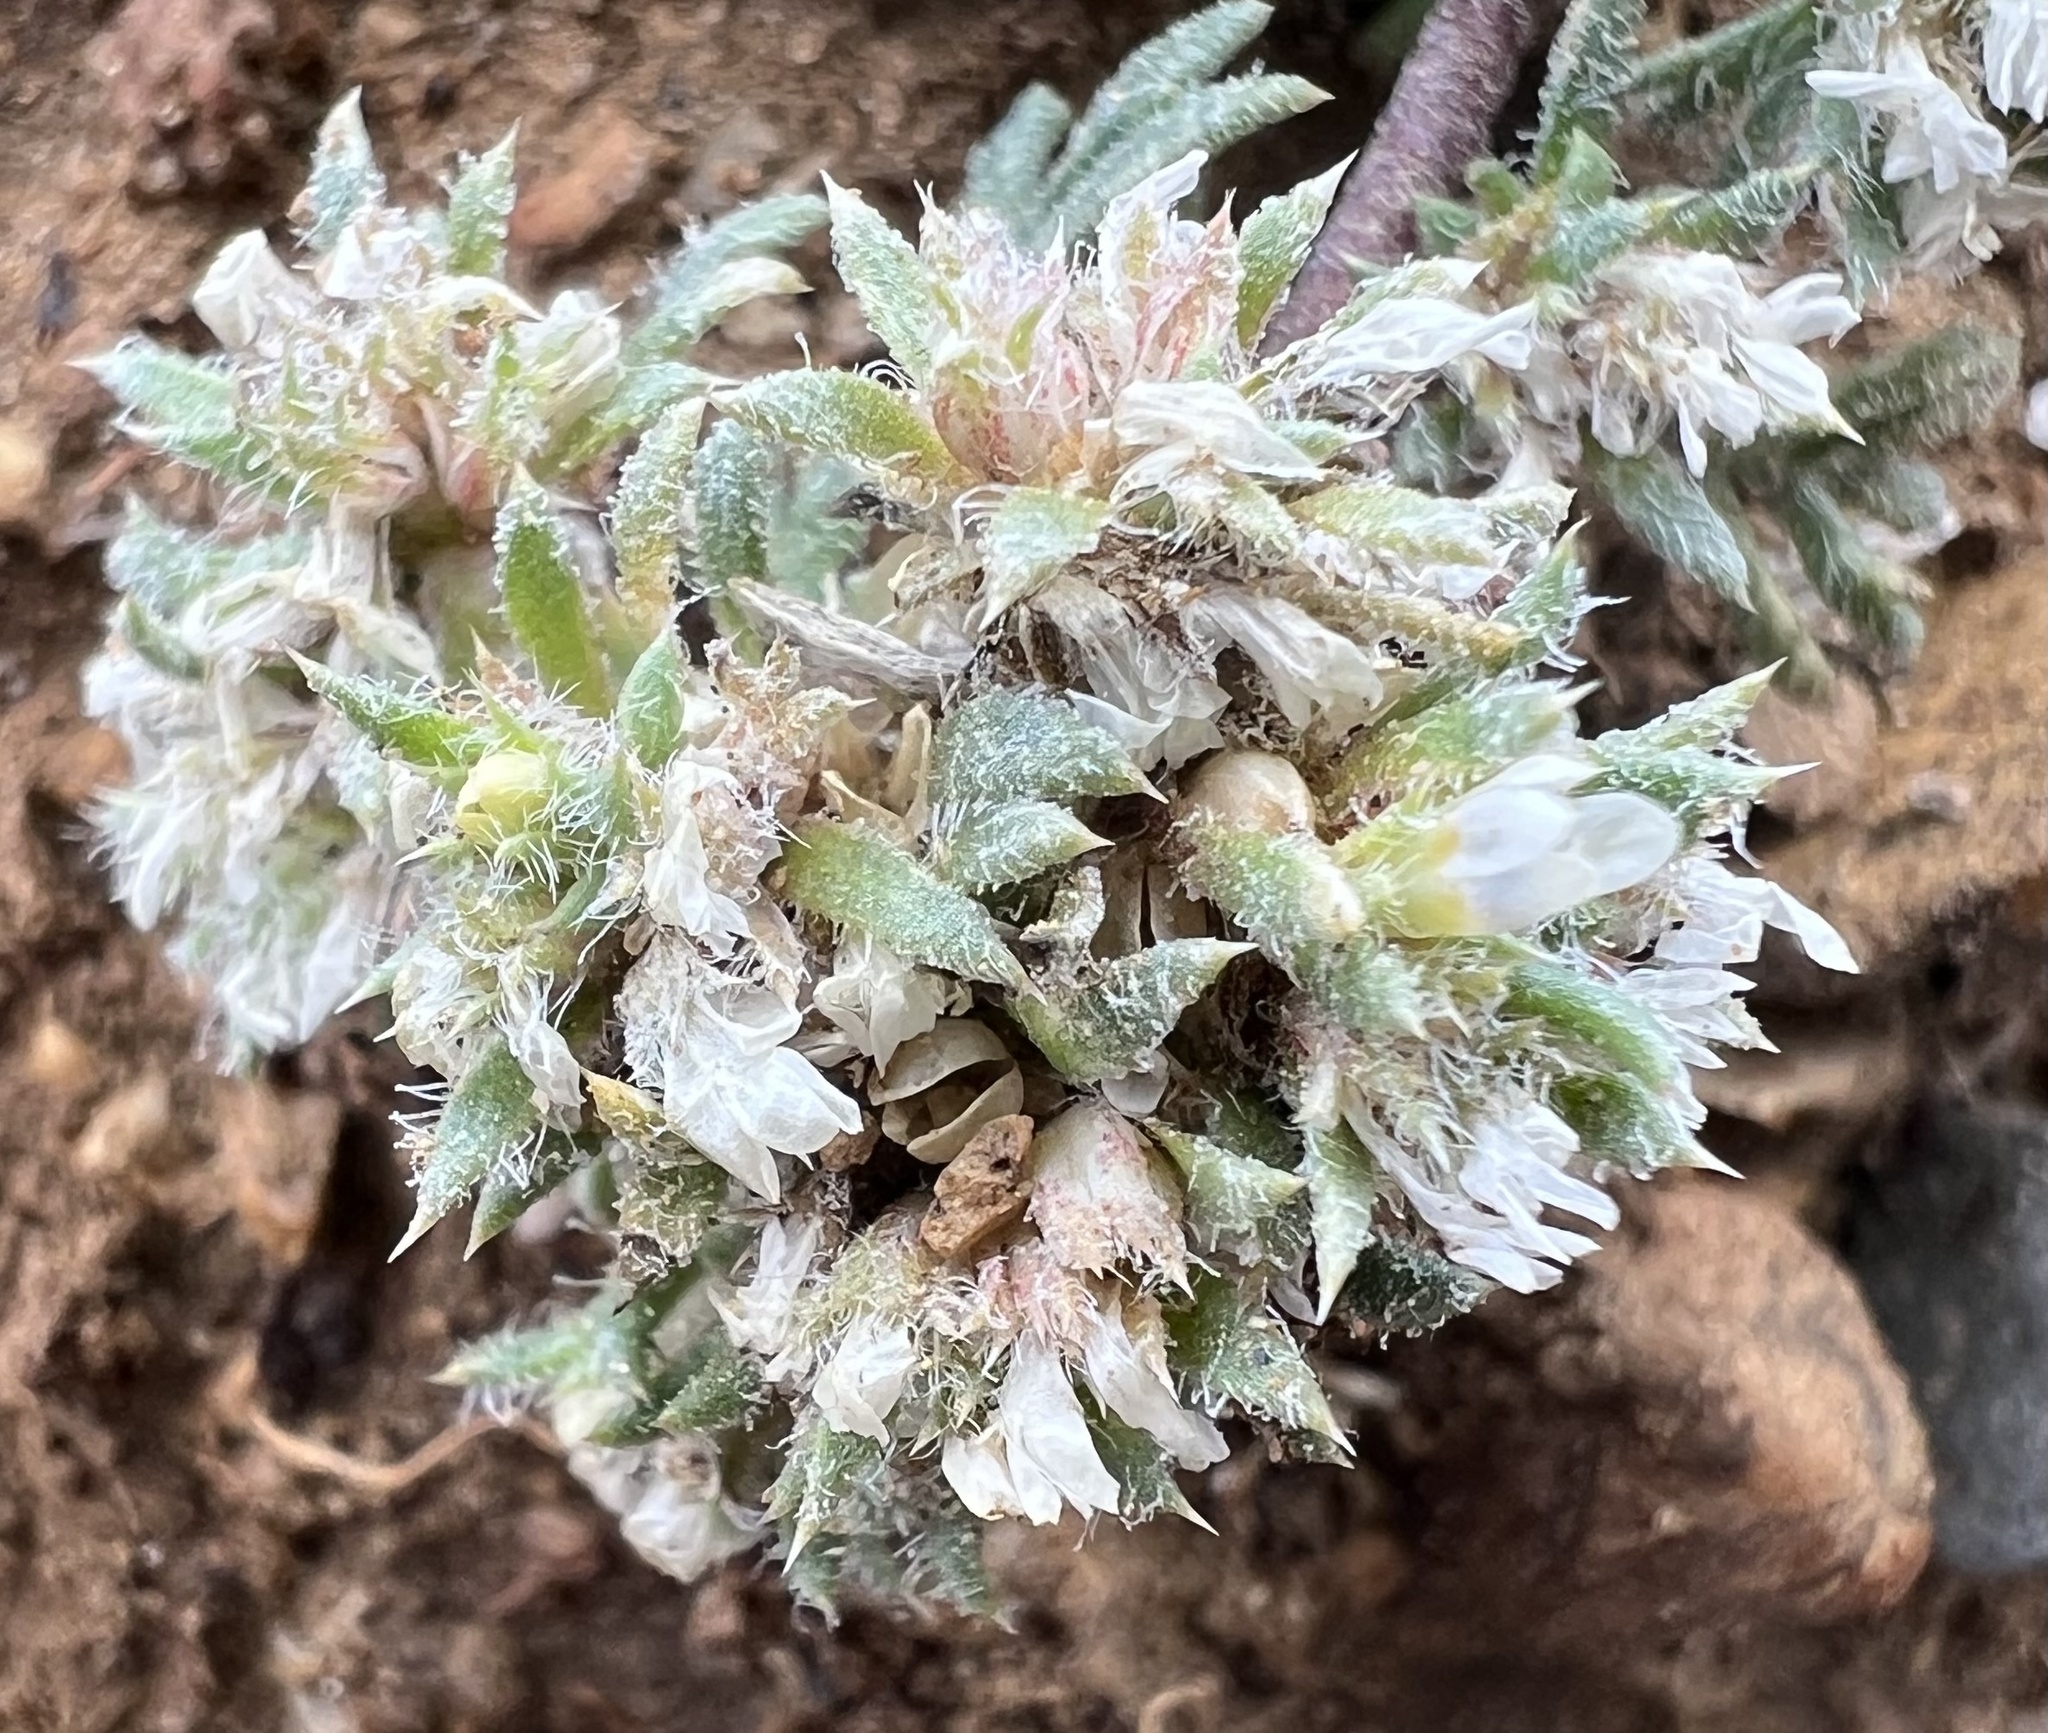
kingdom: Plantae
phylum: Tracheophyta
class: Magnoliopsida
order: Ericales
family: Polemoniaceae
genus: Ipomopsis
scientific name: Ipomopsis congesta
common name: Ball-head gilia
